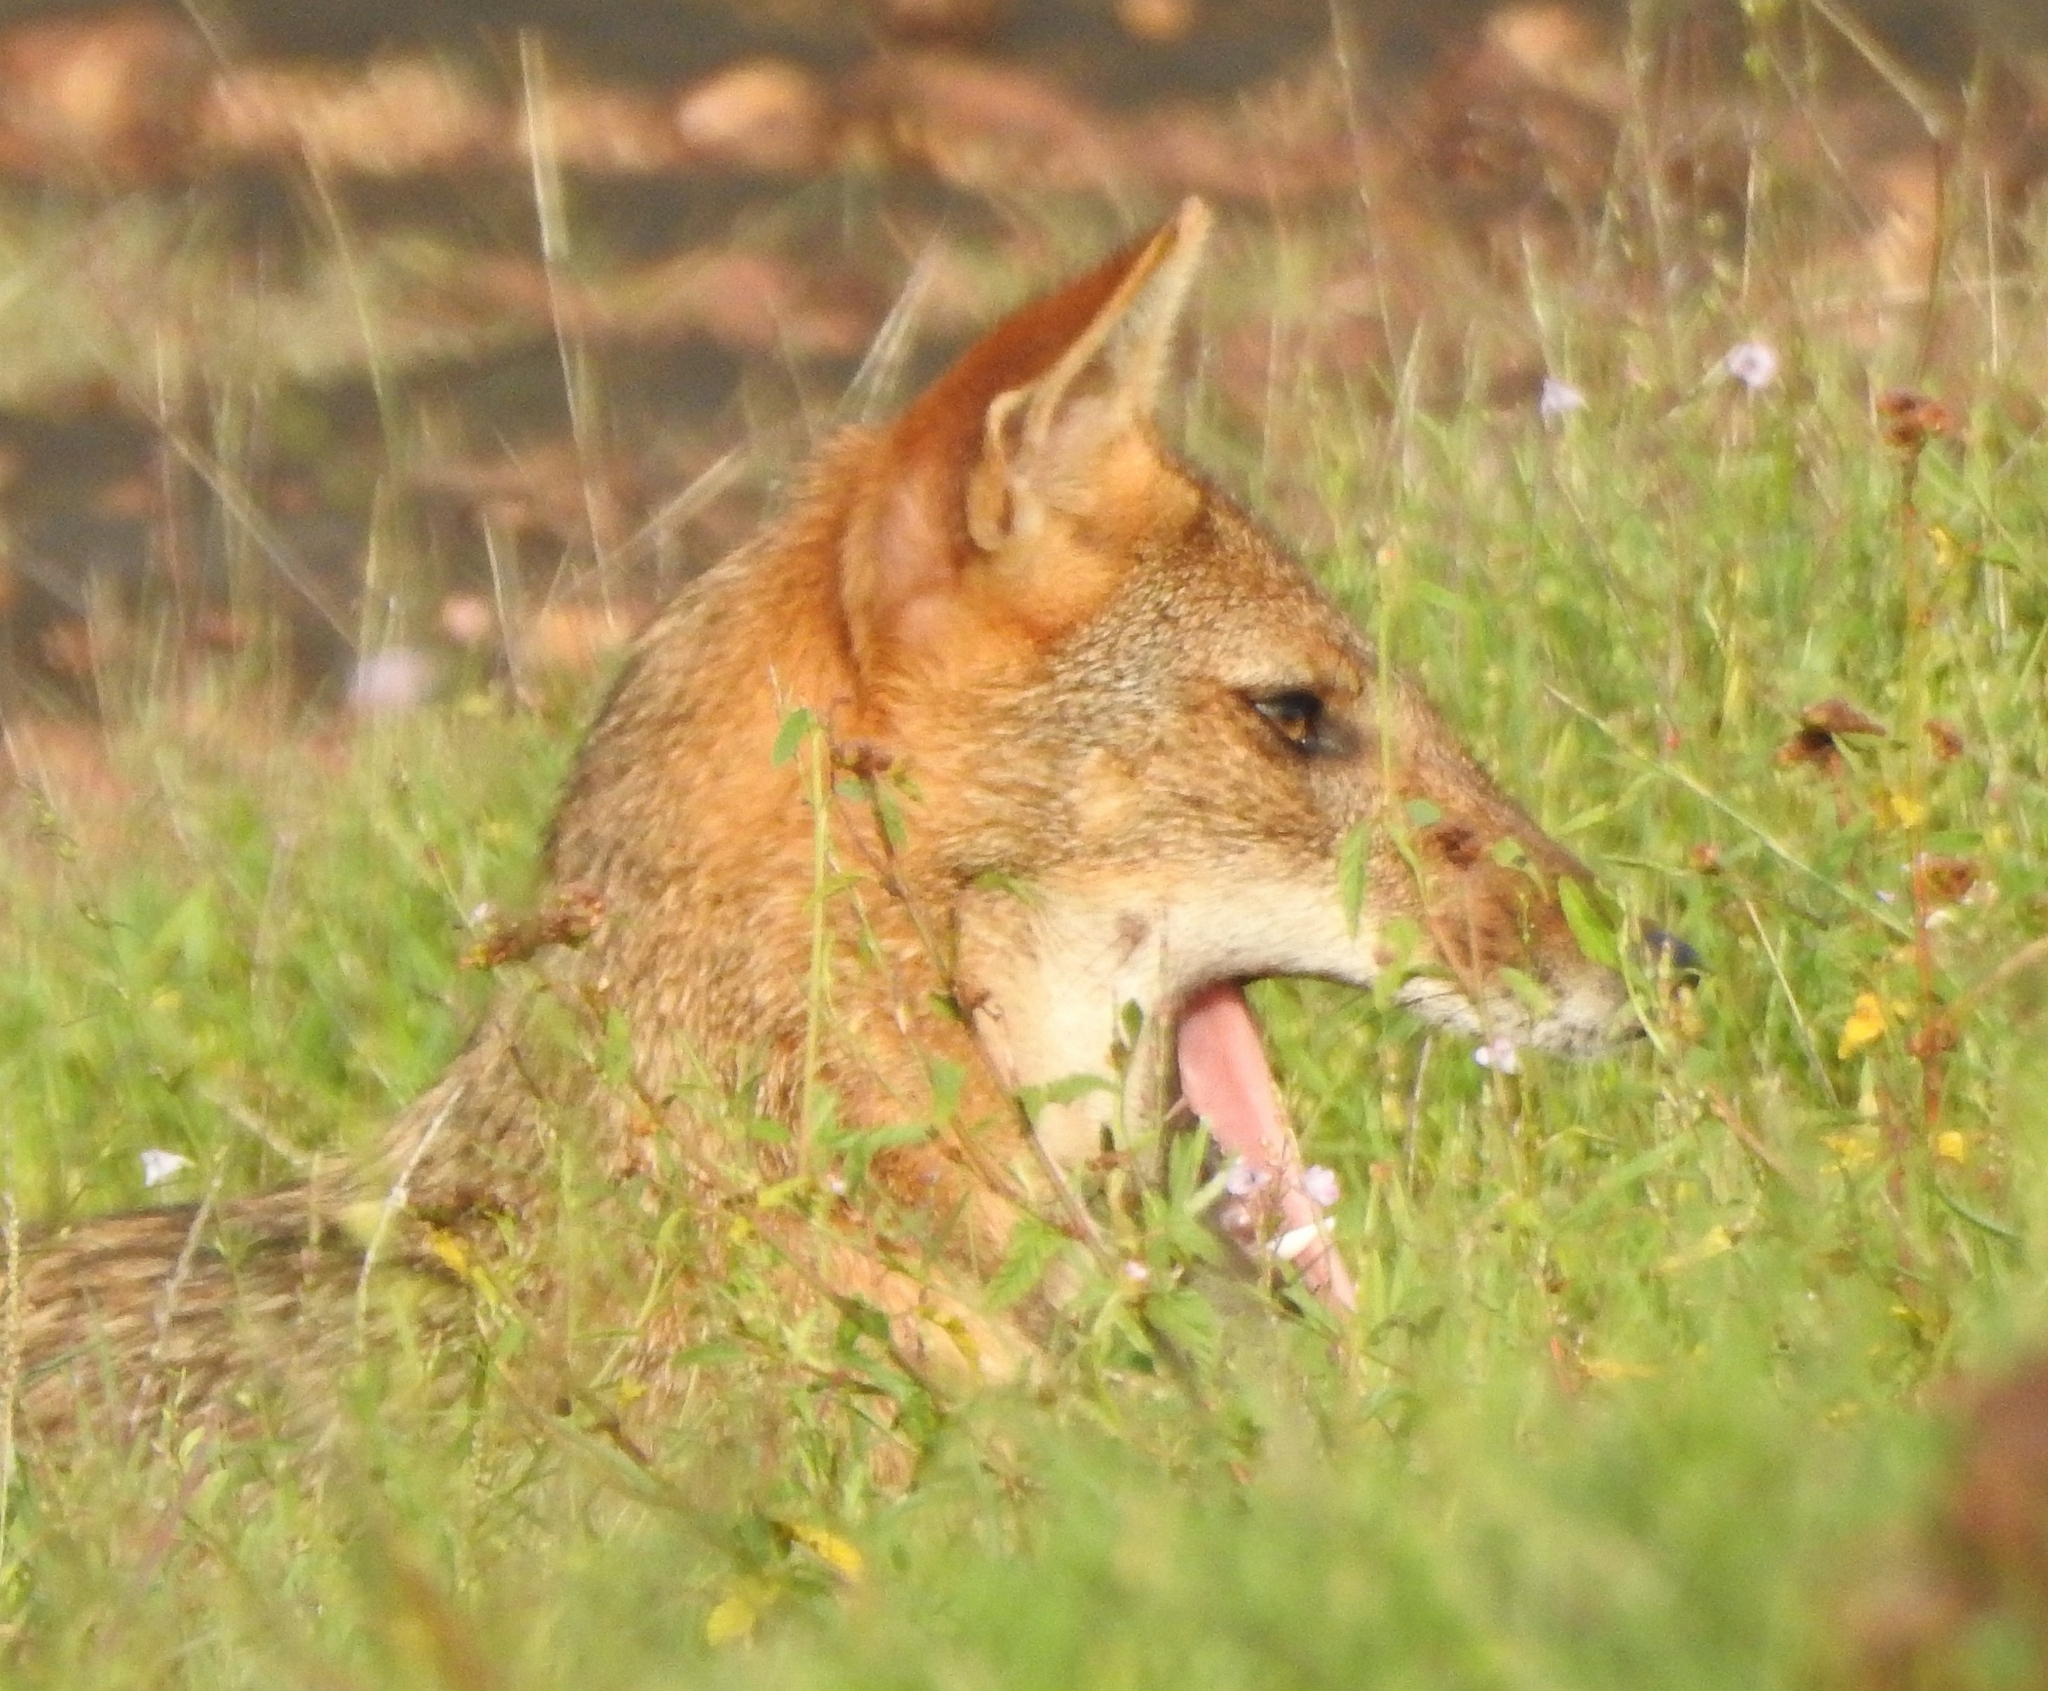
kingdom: Animalia
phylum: Chordata
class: Mammalia
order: Carnivora
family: Canidae
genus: Canis
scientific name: Canis aureus
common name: Golden jackal
